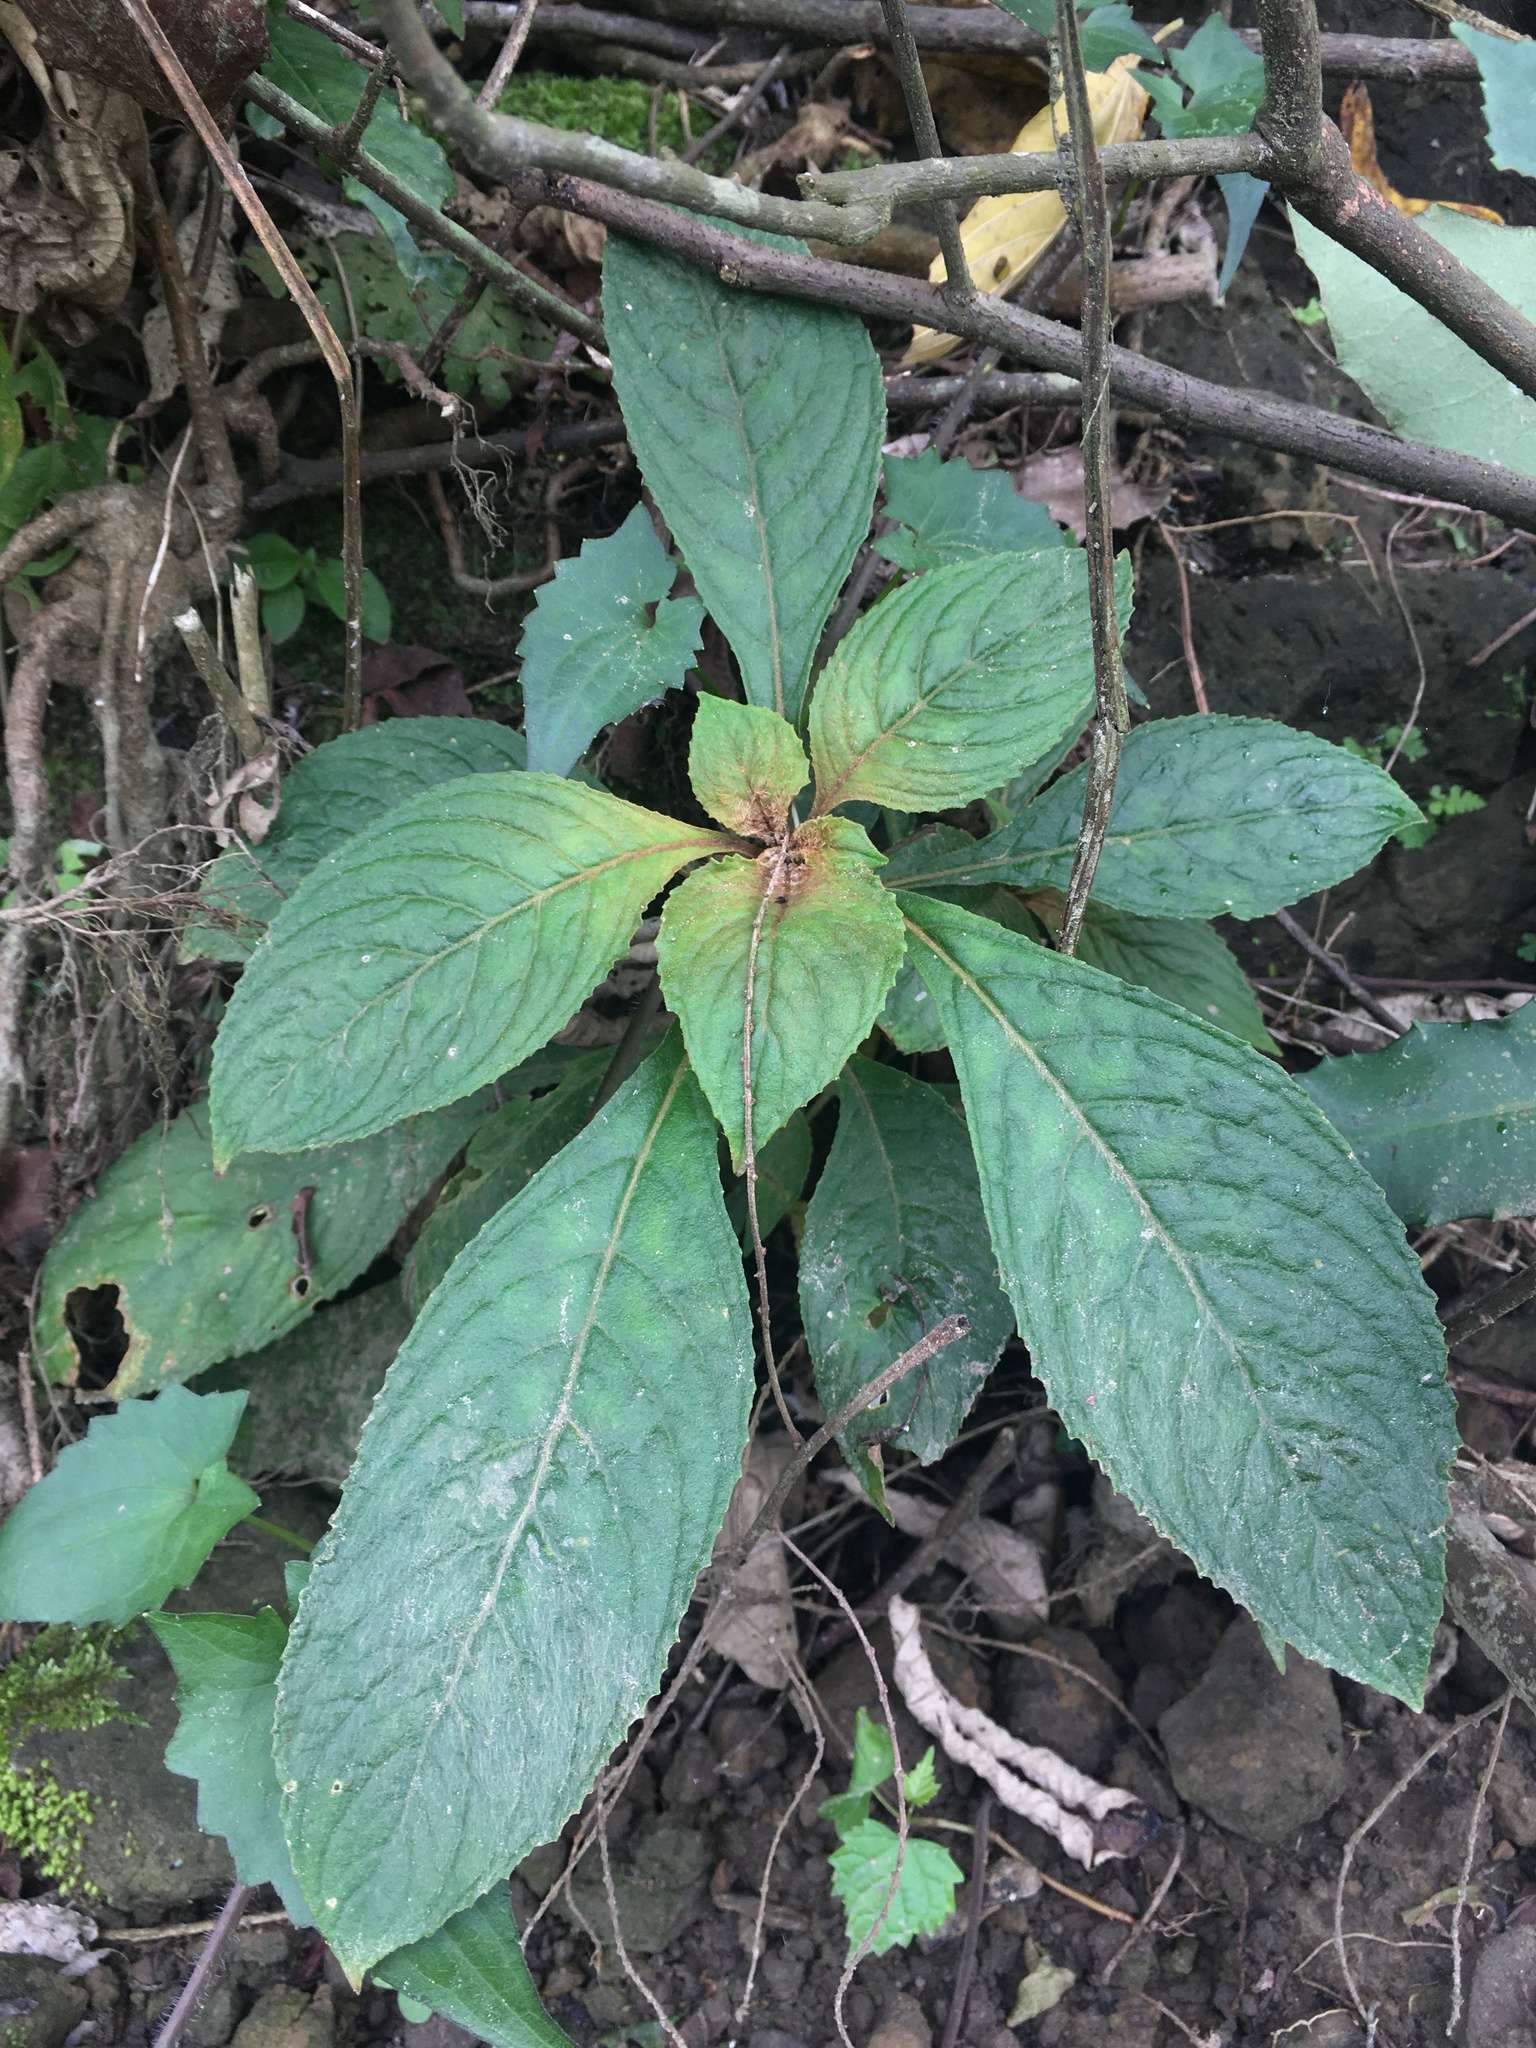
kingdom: Plantae
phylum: Tracheophyta
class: Magnoliopsida
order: Lamiales
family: Gesneriaceae
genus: Rhynchotechum
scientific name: Rhynchotechum discolor
